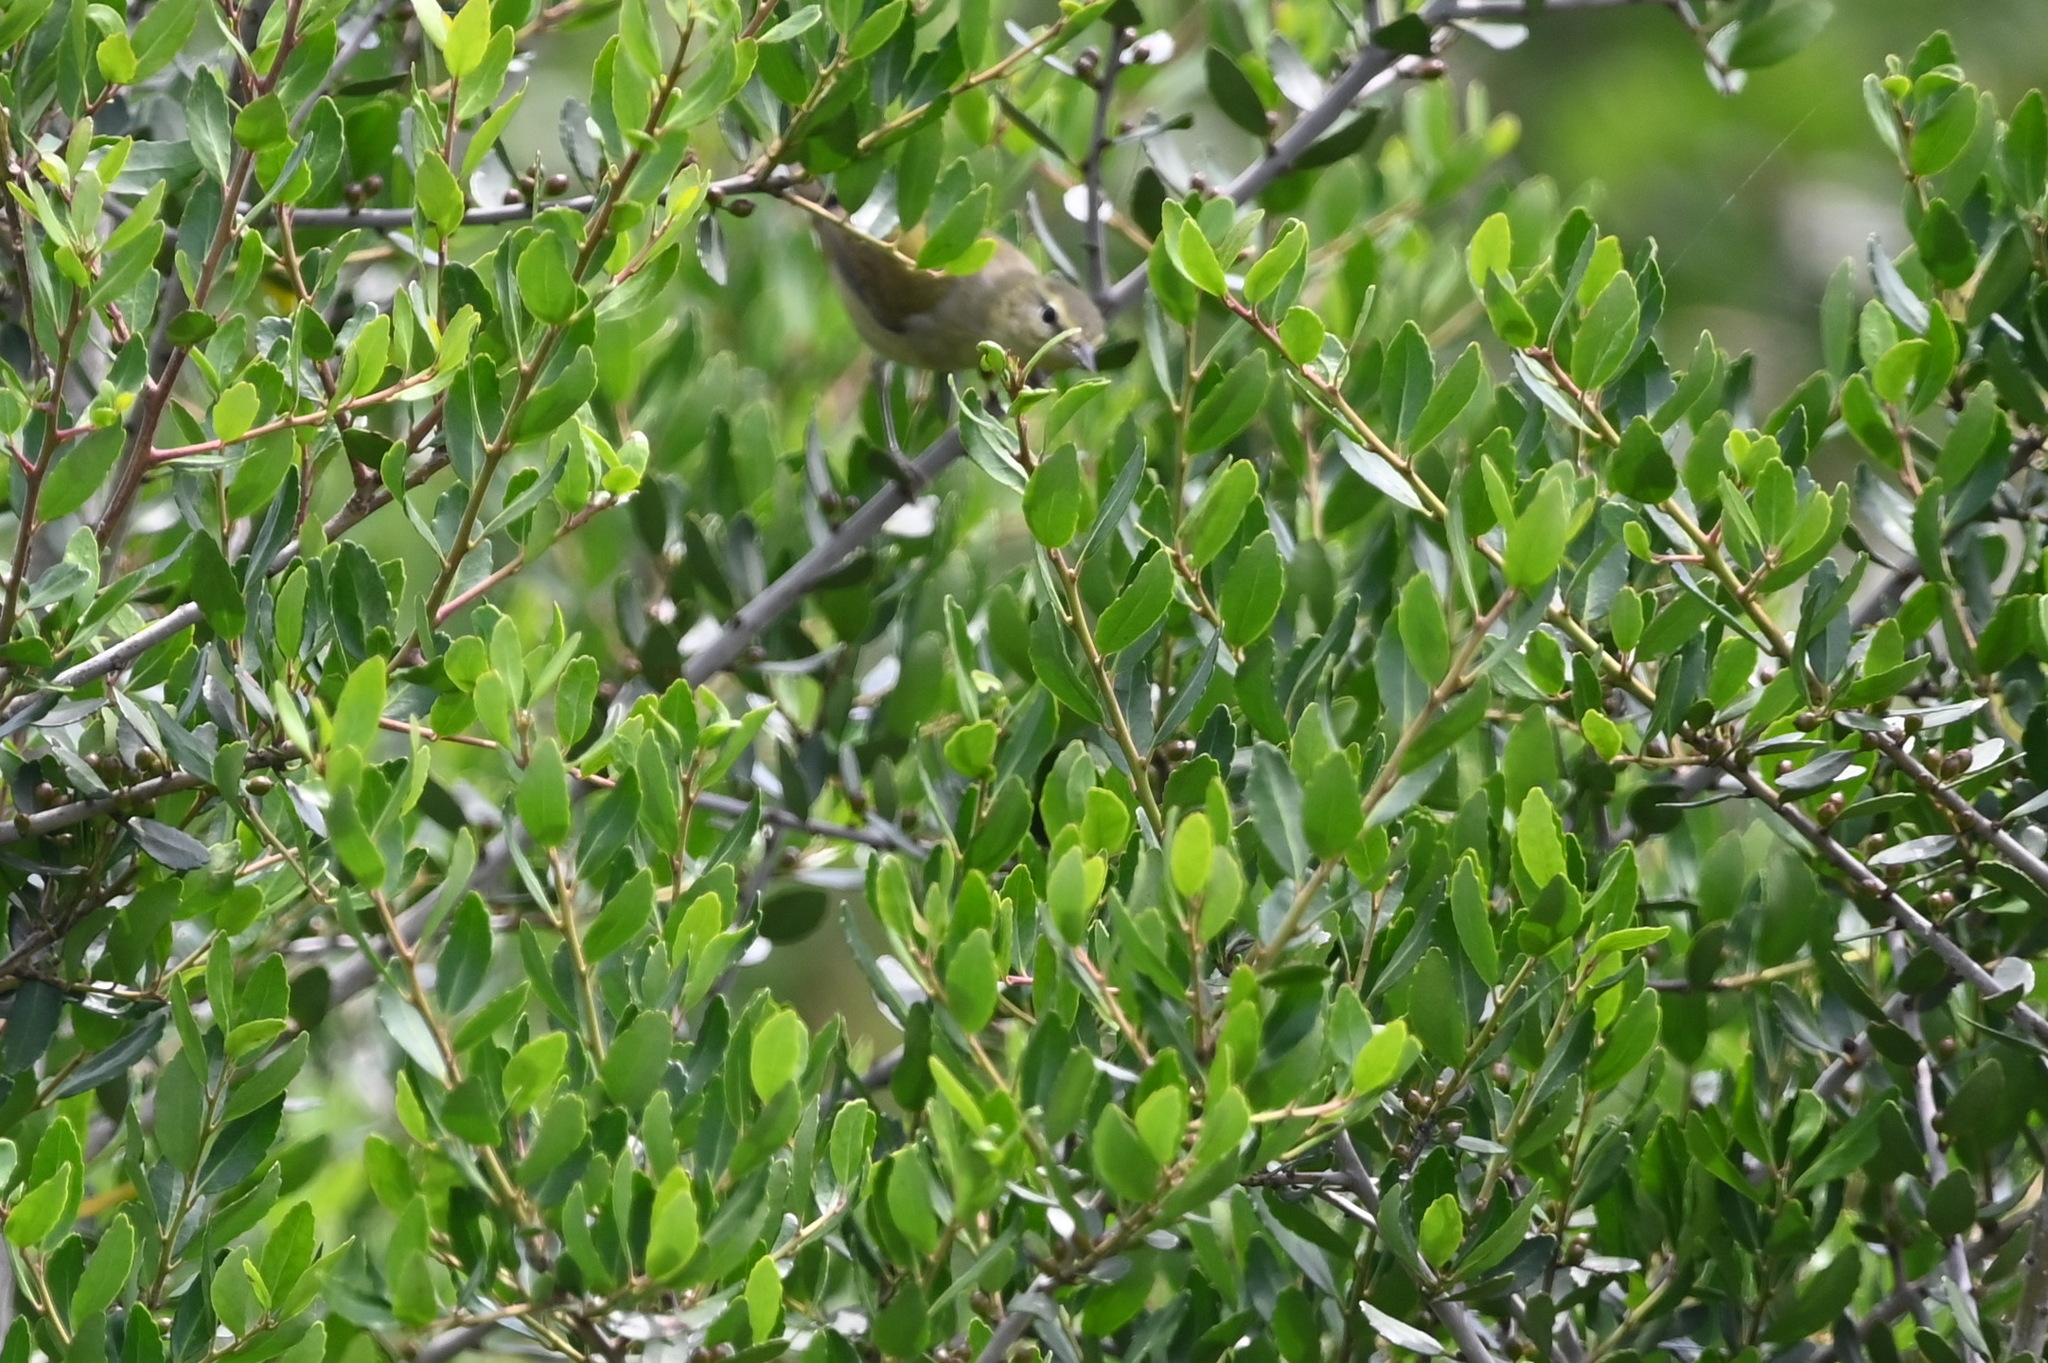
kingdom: Animalia
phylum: Chordata
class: Aves
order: Passeriformes
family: Parulidae
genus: Leiothlypis
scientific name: Leiothlypis peregrina
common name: Tennessee warbler
